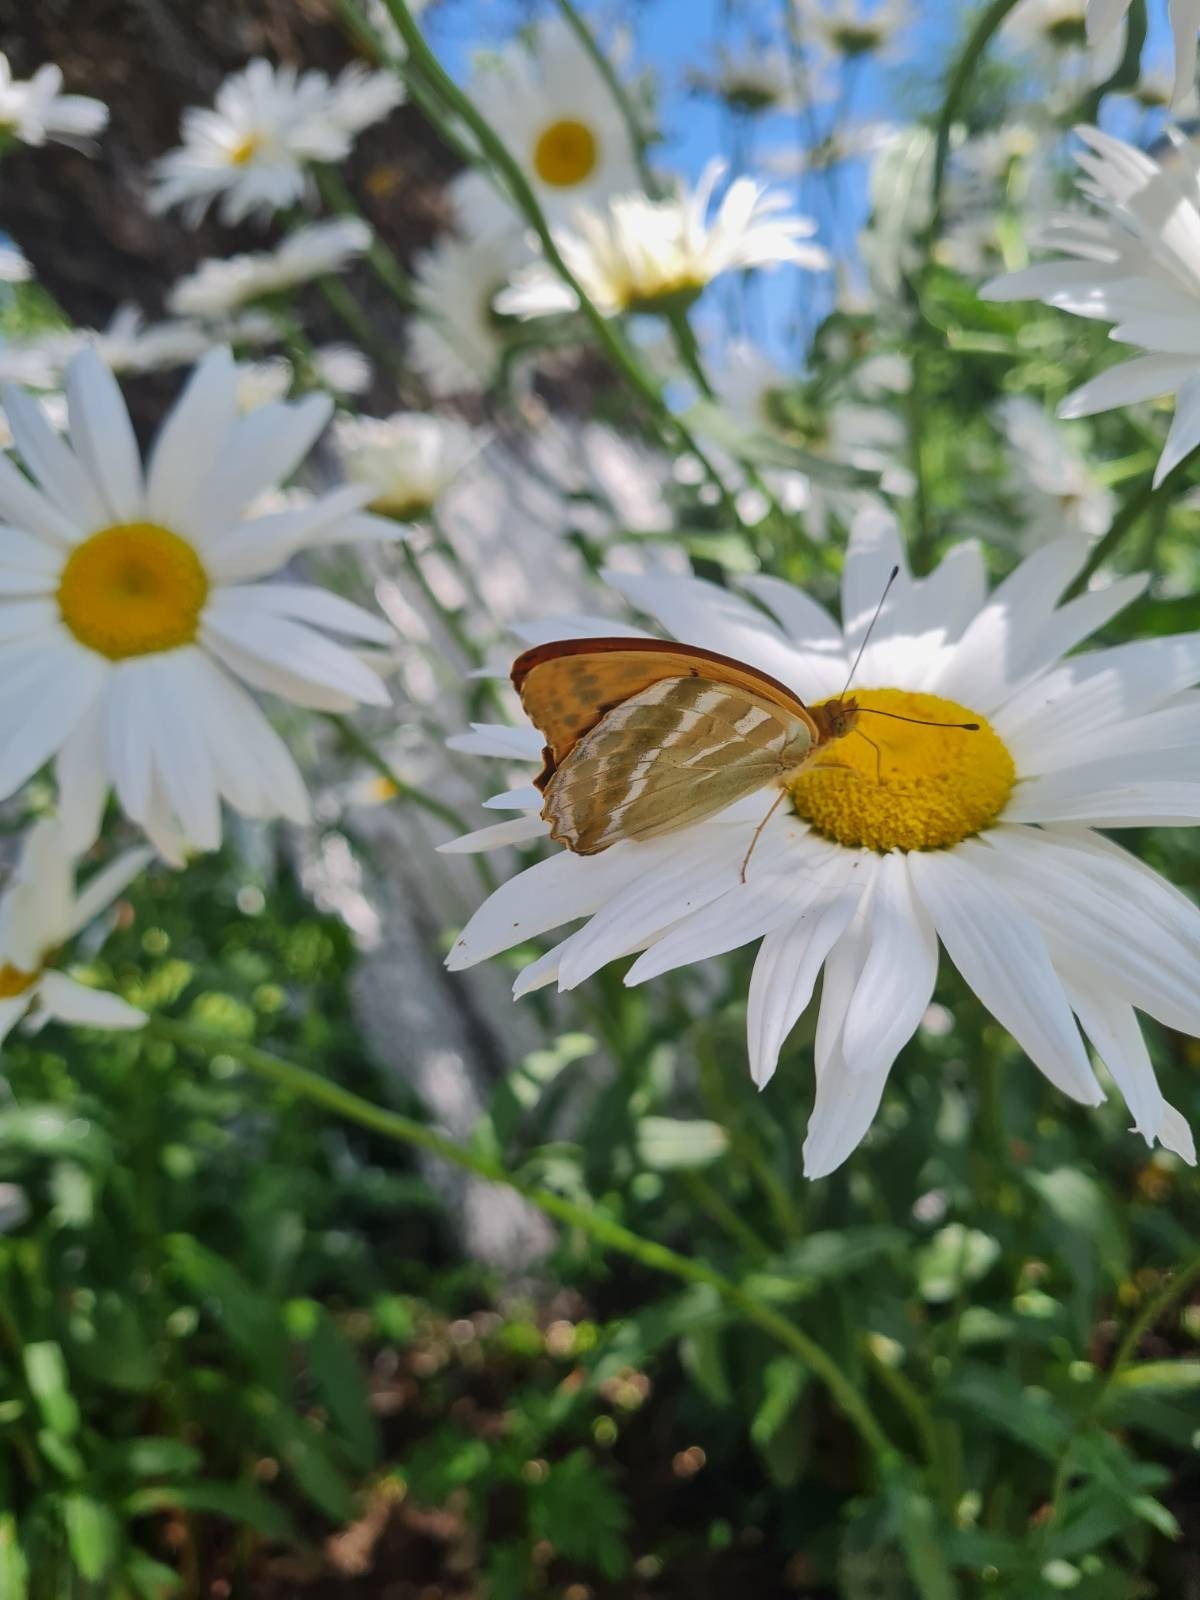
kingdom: Animalia
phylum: Arthropoda
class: Insecta
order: Lepidoptera
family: Nymphalidae
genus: Argynnis
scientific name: Argynnis paphia
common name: Silver-washed fritillary
